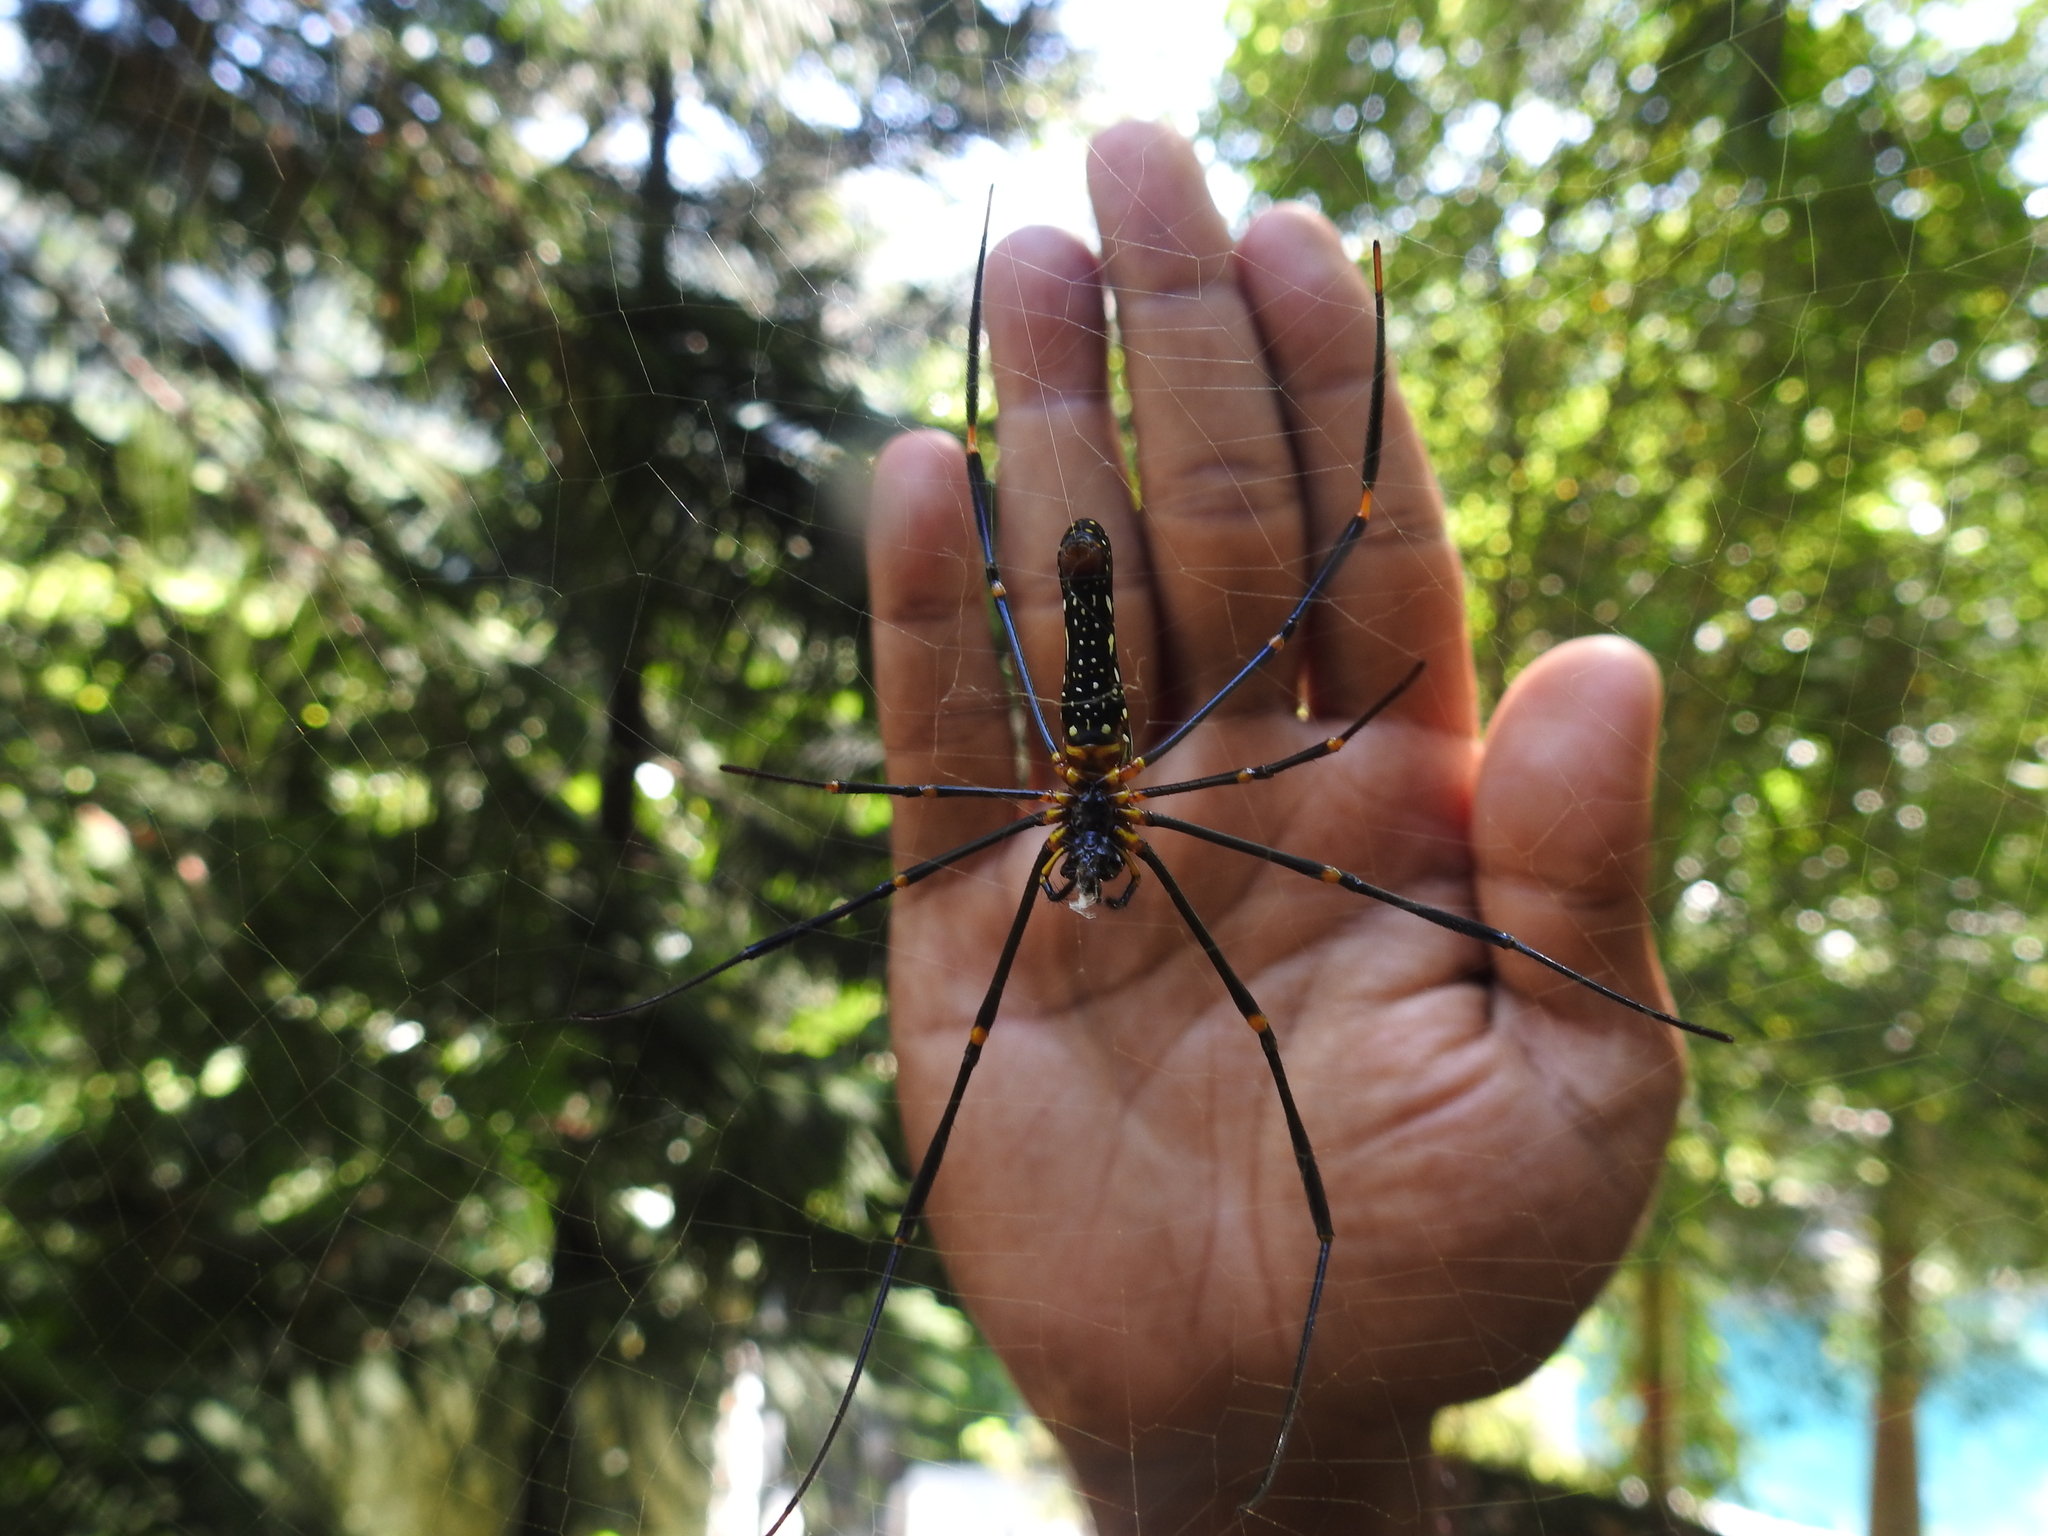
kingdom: Animalia
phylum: Arthropoda
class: Arachnida
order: Araneae
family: Araneidae
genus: Nephila
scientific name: Nephila pilipes
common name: Giant golden orb weaver
